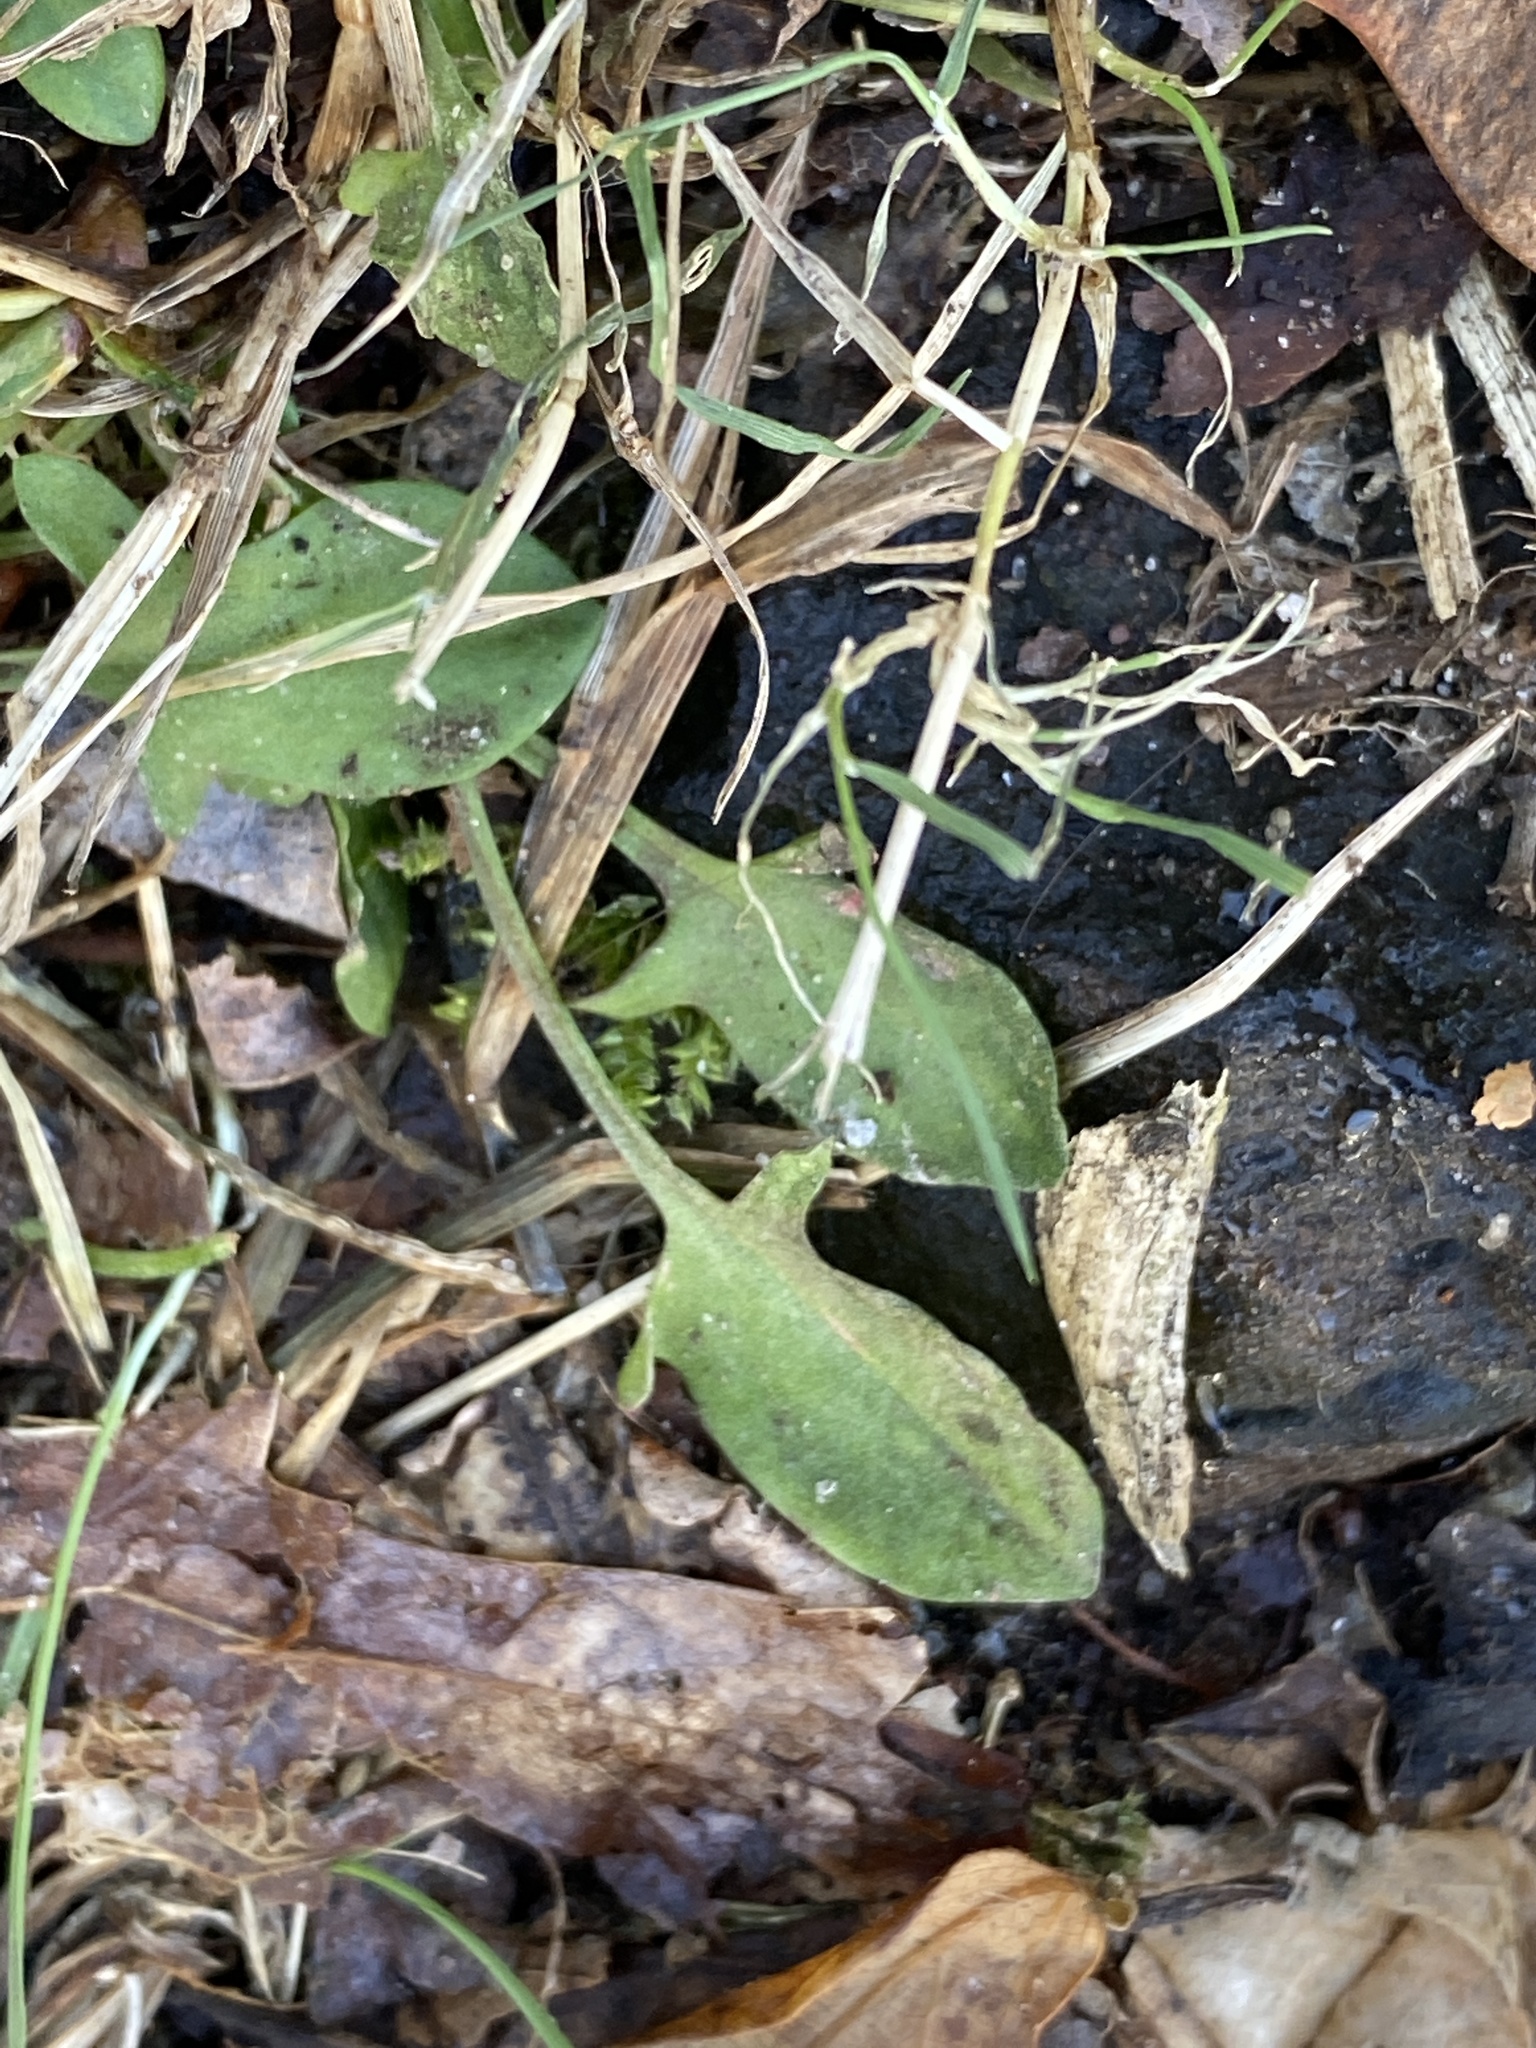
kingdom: Plantae
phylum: Tracheophyta
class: Magnoliopsida
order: Caryophyllales
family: Polygonaceae
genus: Rumex
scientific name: Rumex acetosella
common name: Common sheep sorrel
